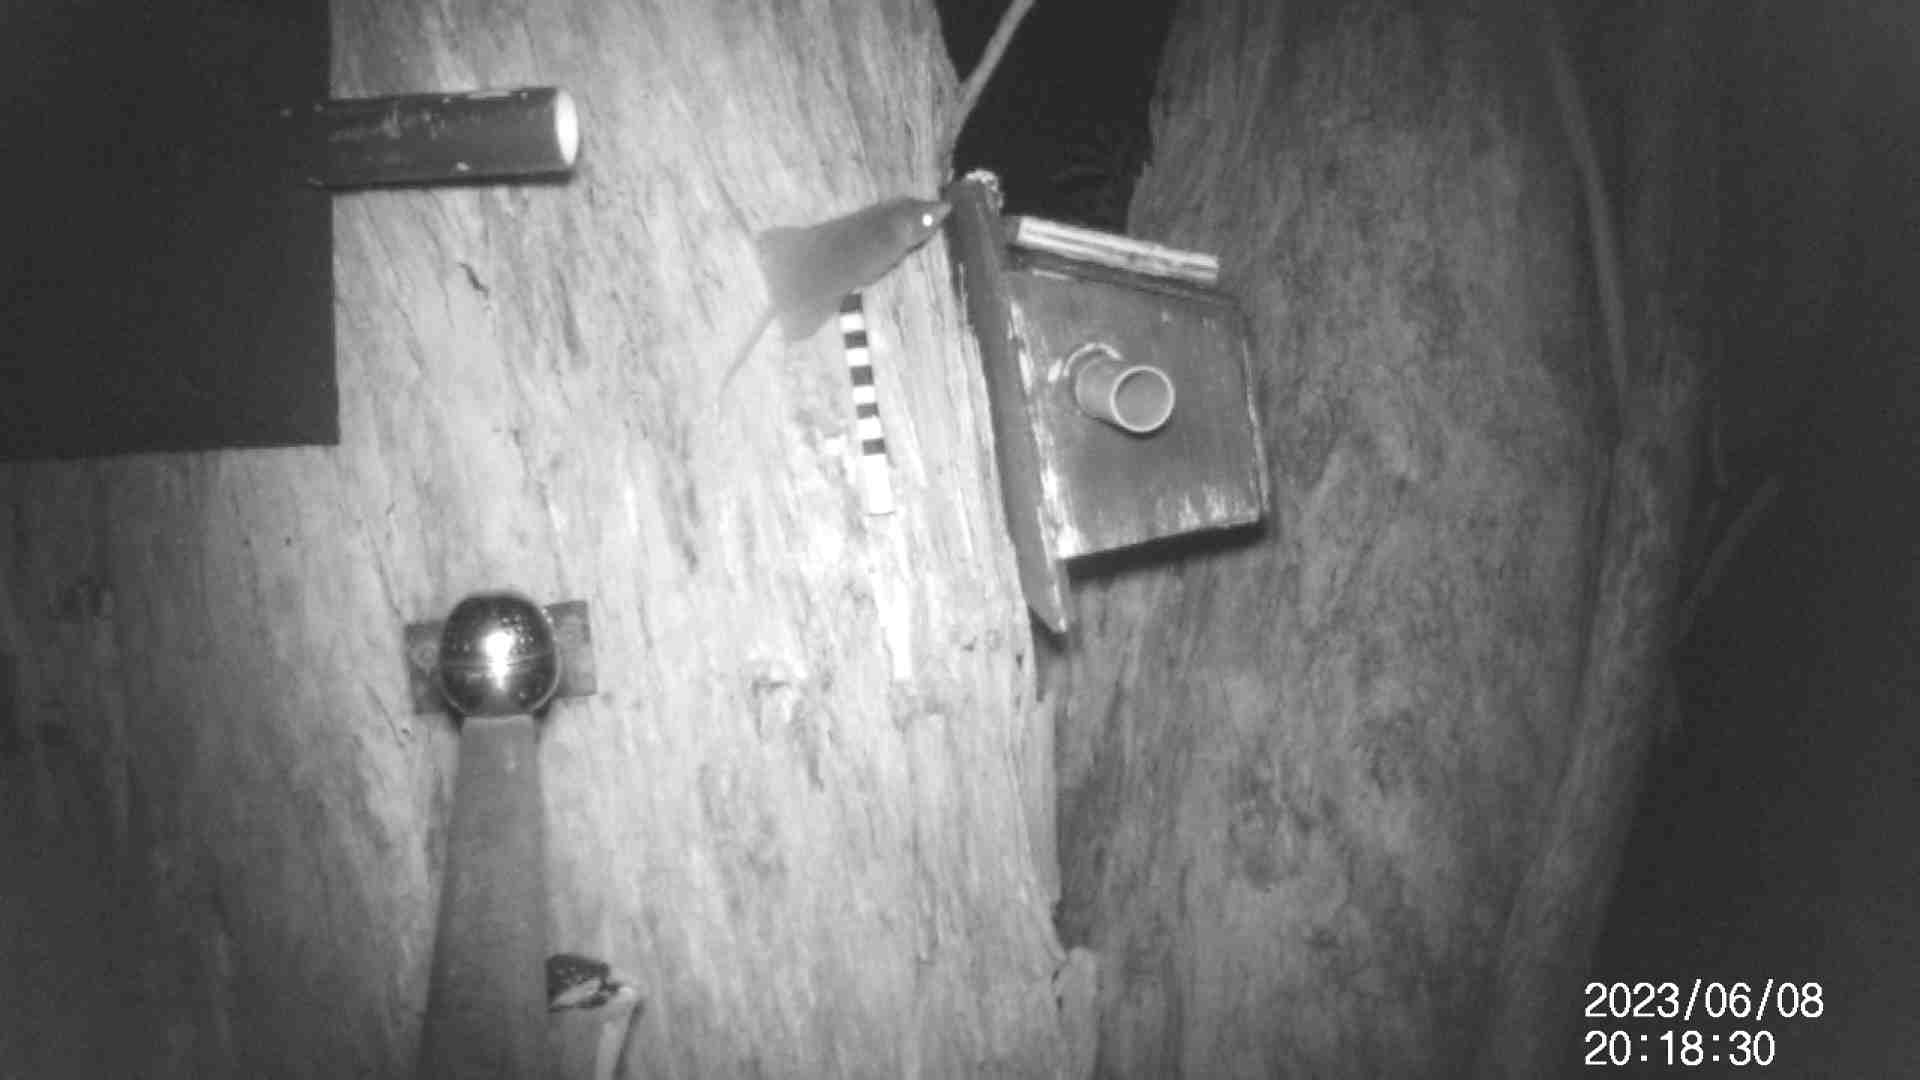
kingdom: Animalia
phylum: Chordata
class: Mammalia
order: Dasyuromorphia
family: Dasyuridae
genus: Antechinus
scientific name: Antechinus agilis
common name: Agile antechinus
